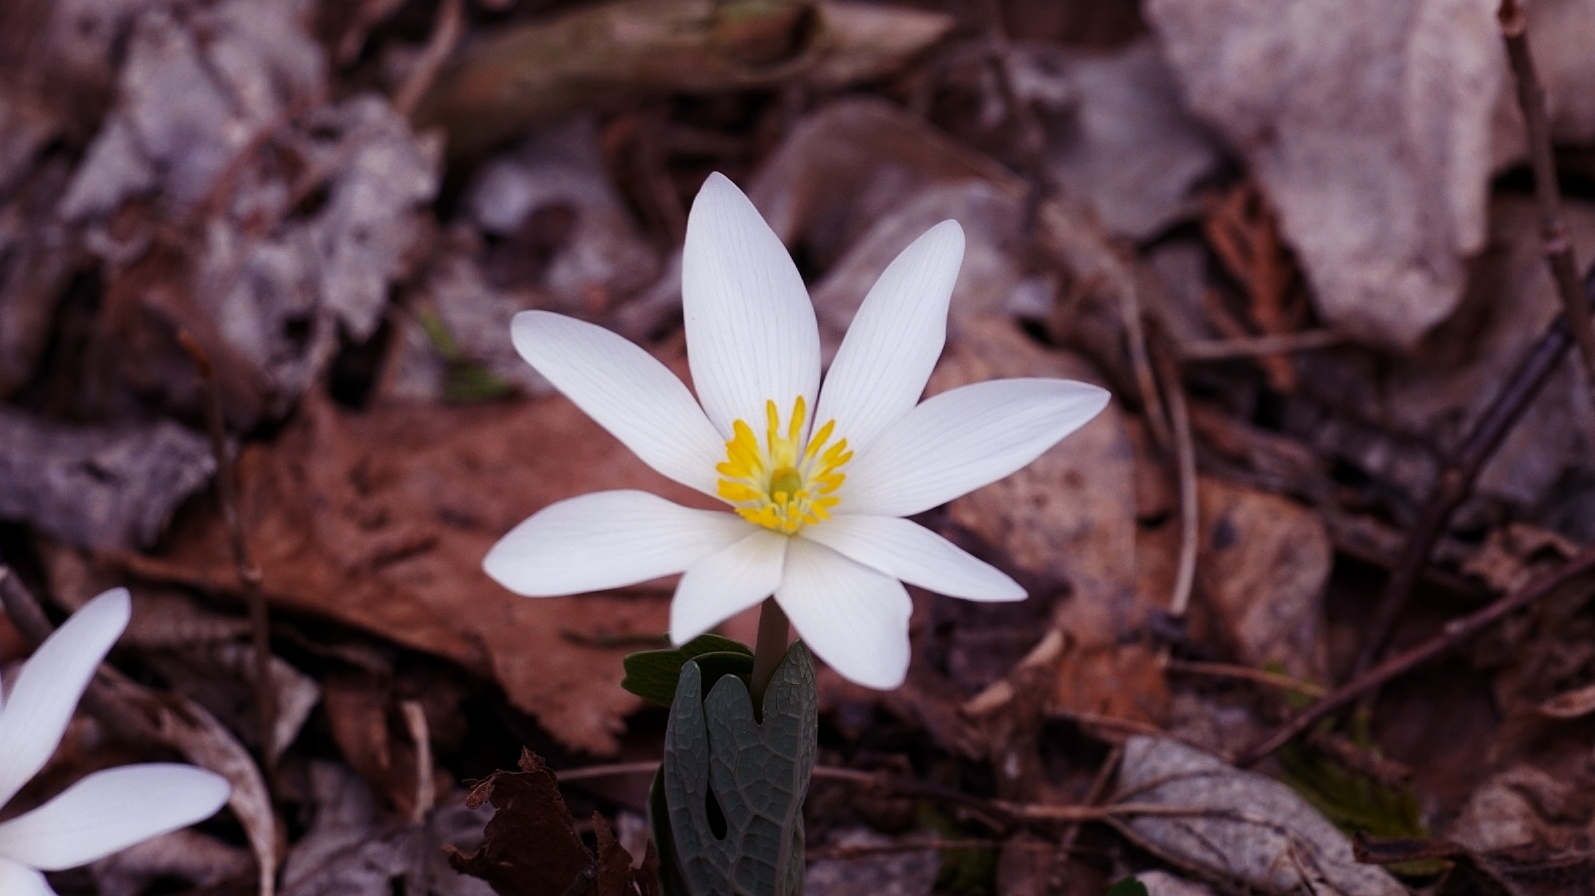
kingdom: Plantae
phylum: Tracheophyta
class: Magnoliopsida
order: Ranunculales
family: Papaveraceae
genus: Sanguinaria
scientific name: Sanguinaria canadensis
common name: Bloodroot
